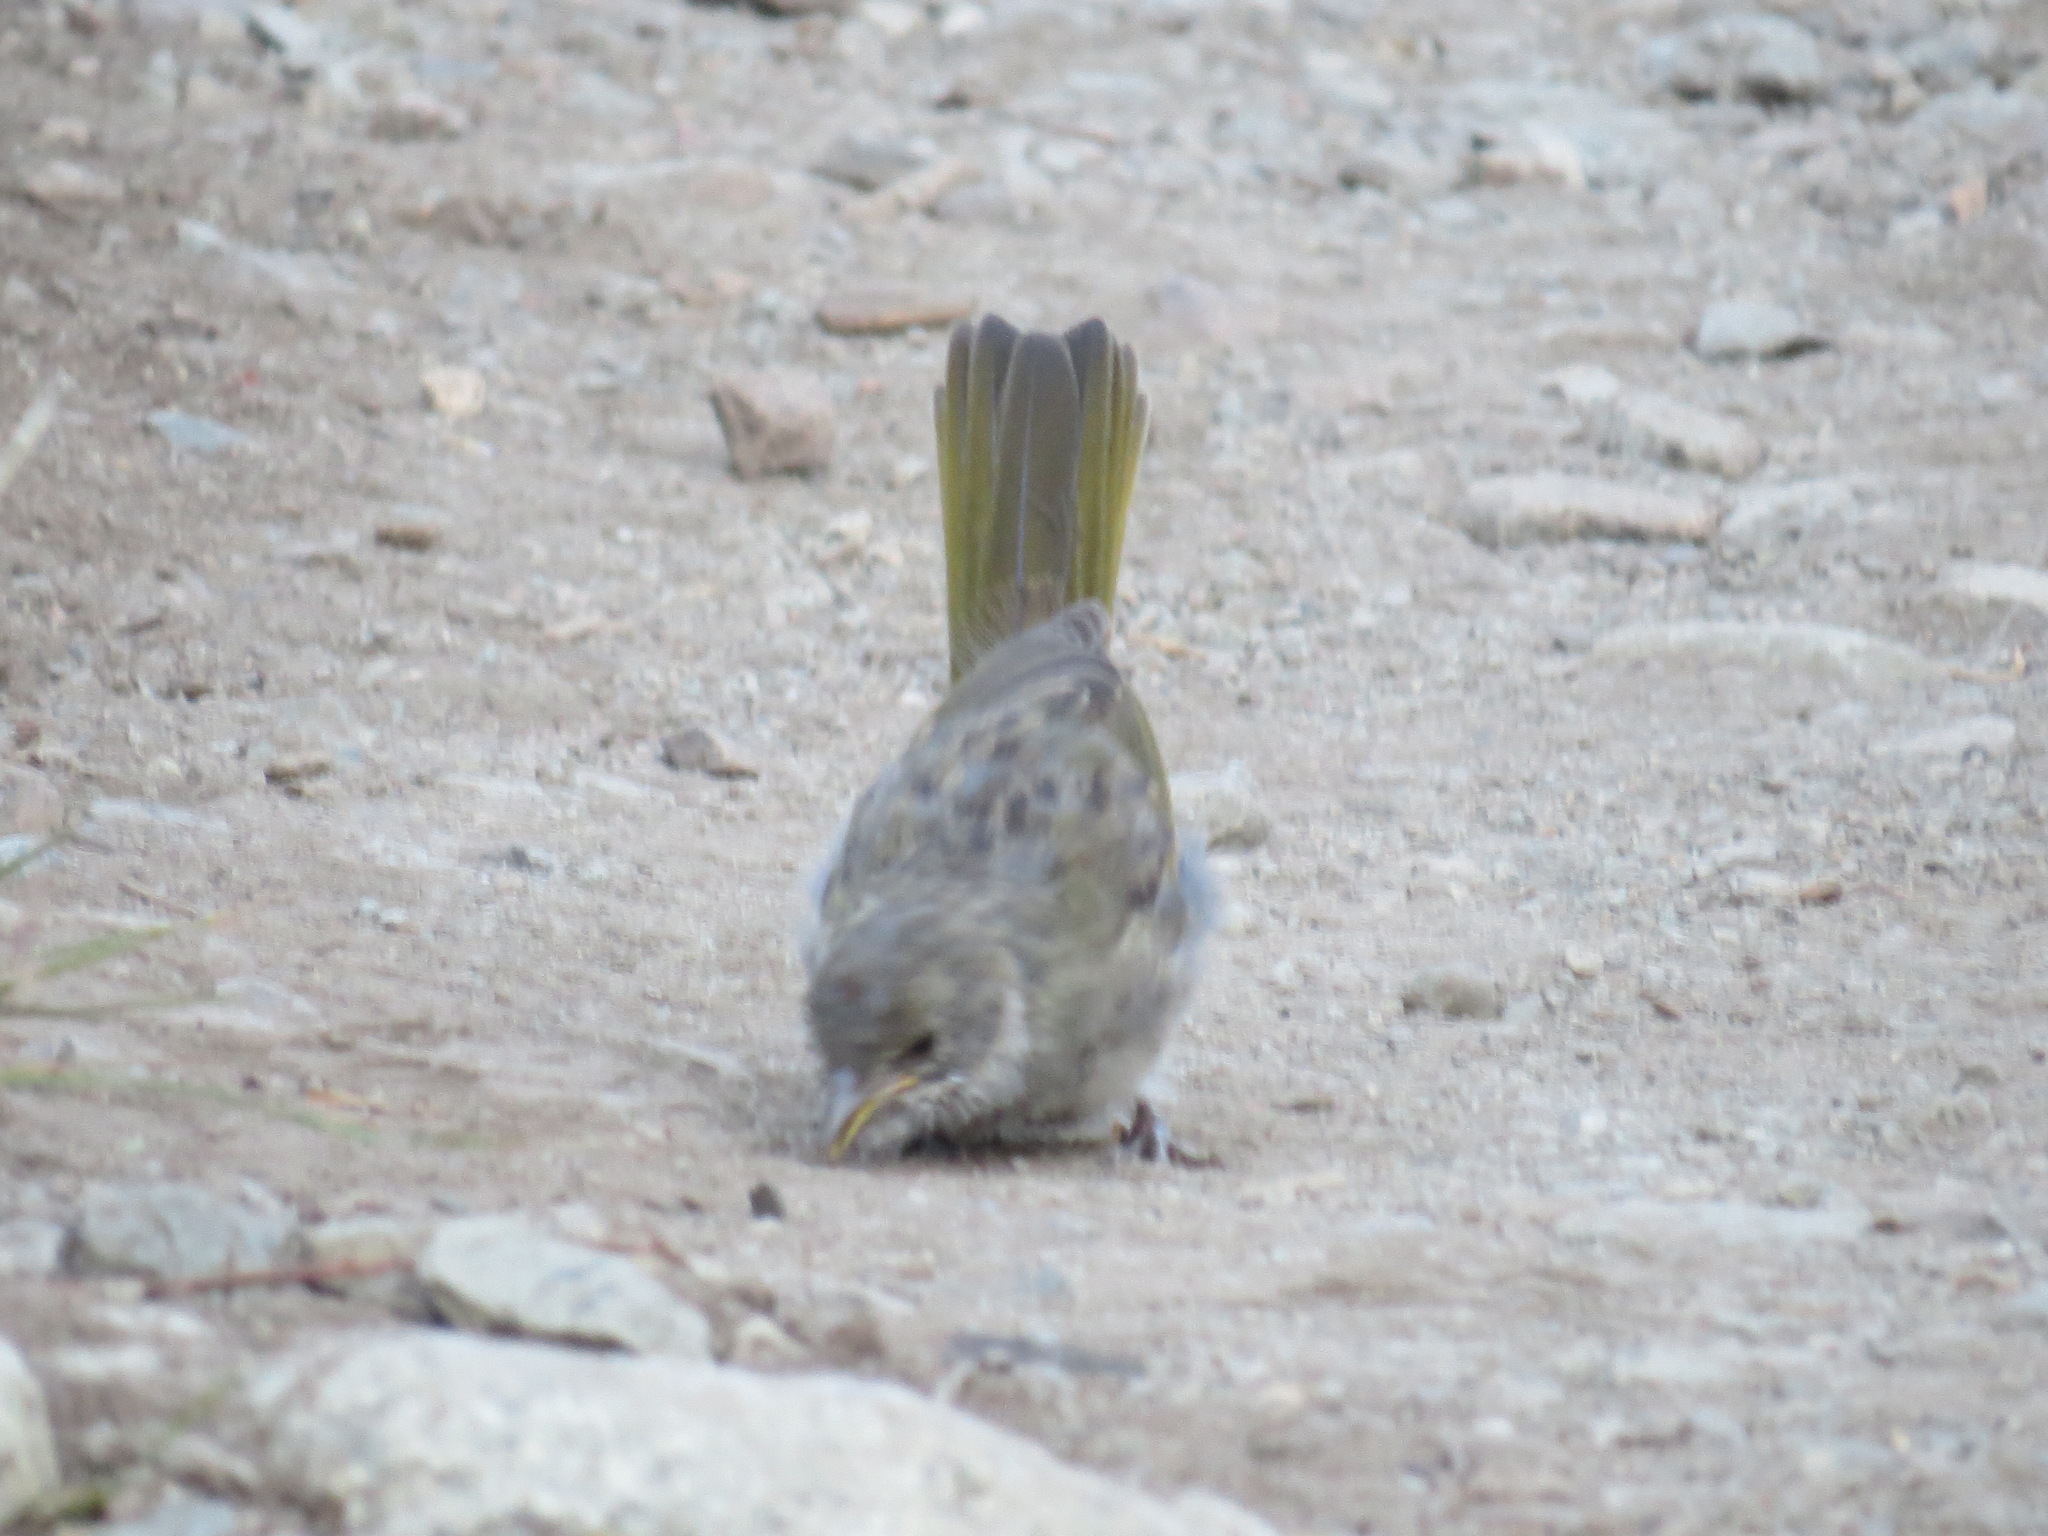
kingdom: Animalia
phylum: Chordata
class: Aves
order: Passeriformes
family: Passerellidae
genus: Pipilo
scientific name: Pipilo chlorurus
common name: Green-tailed towhee
